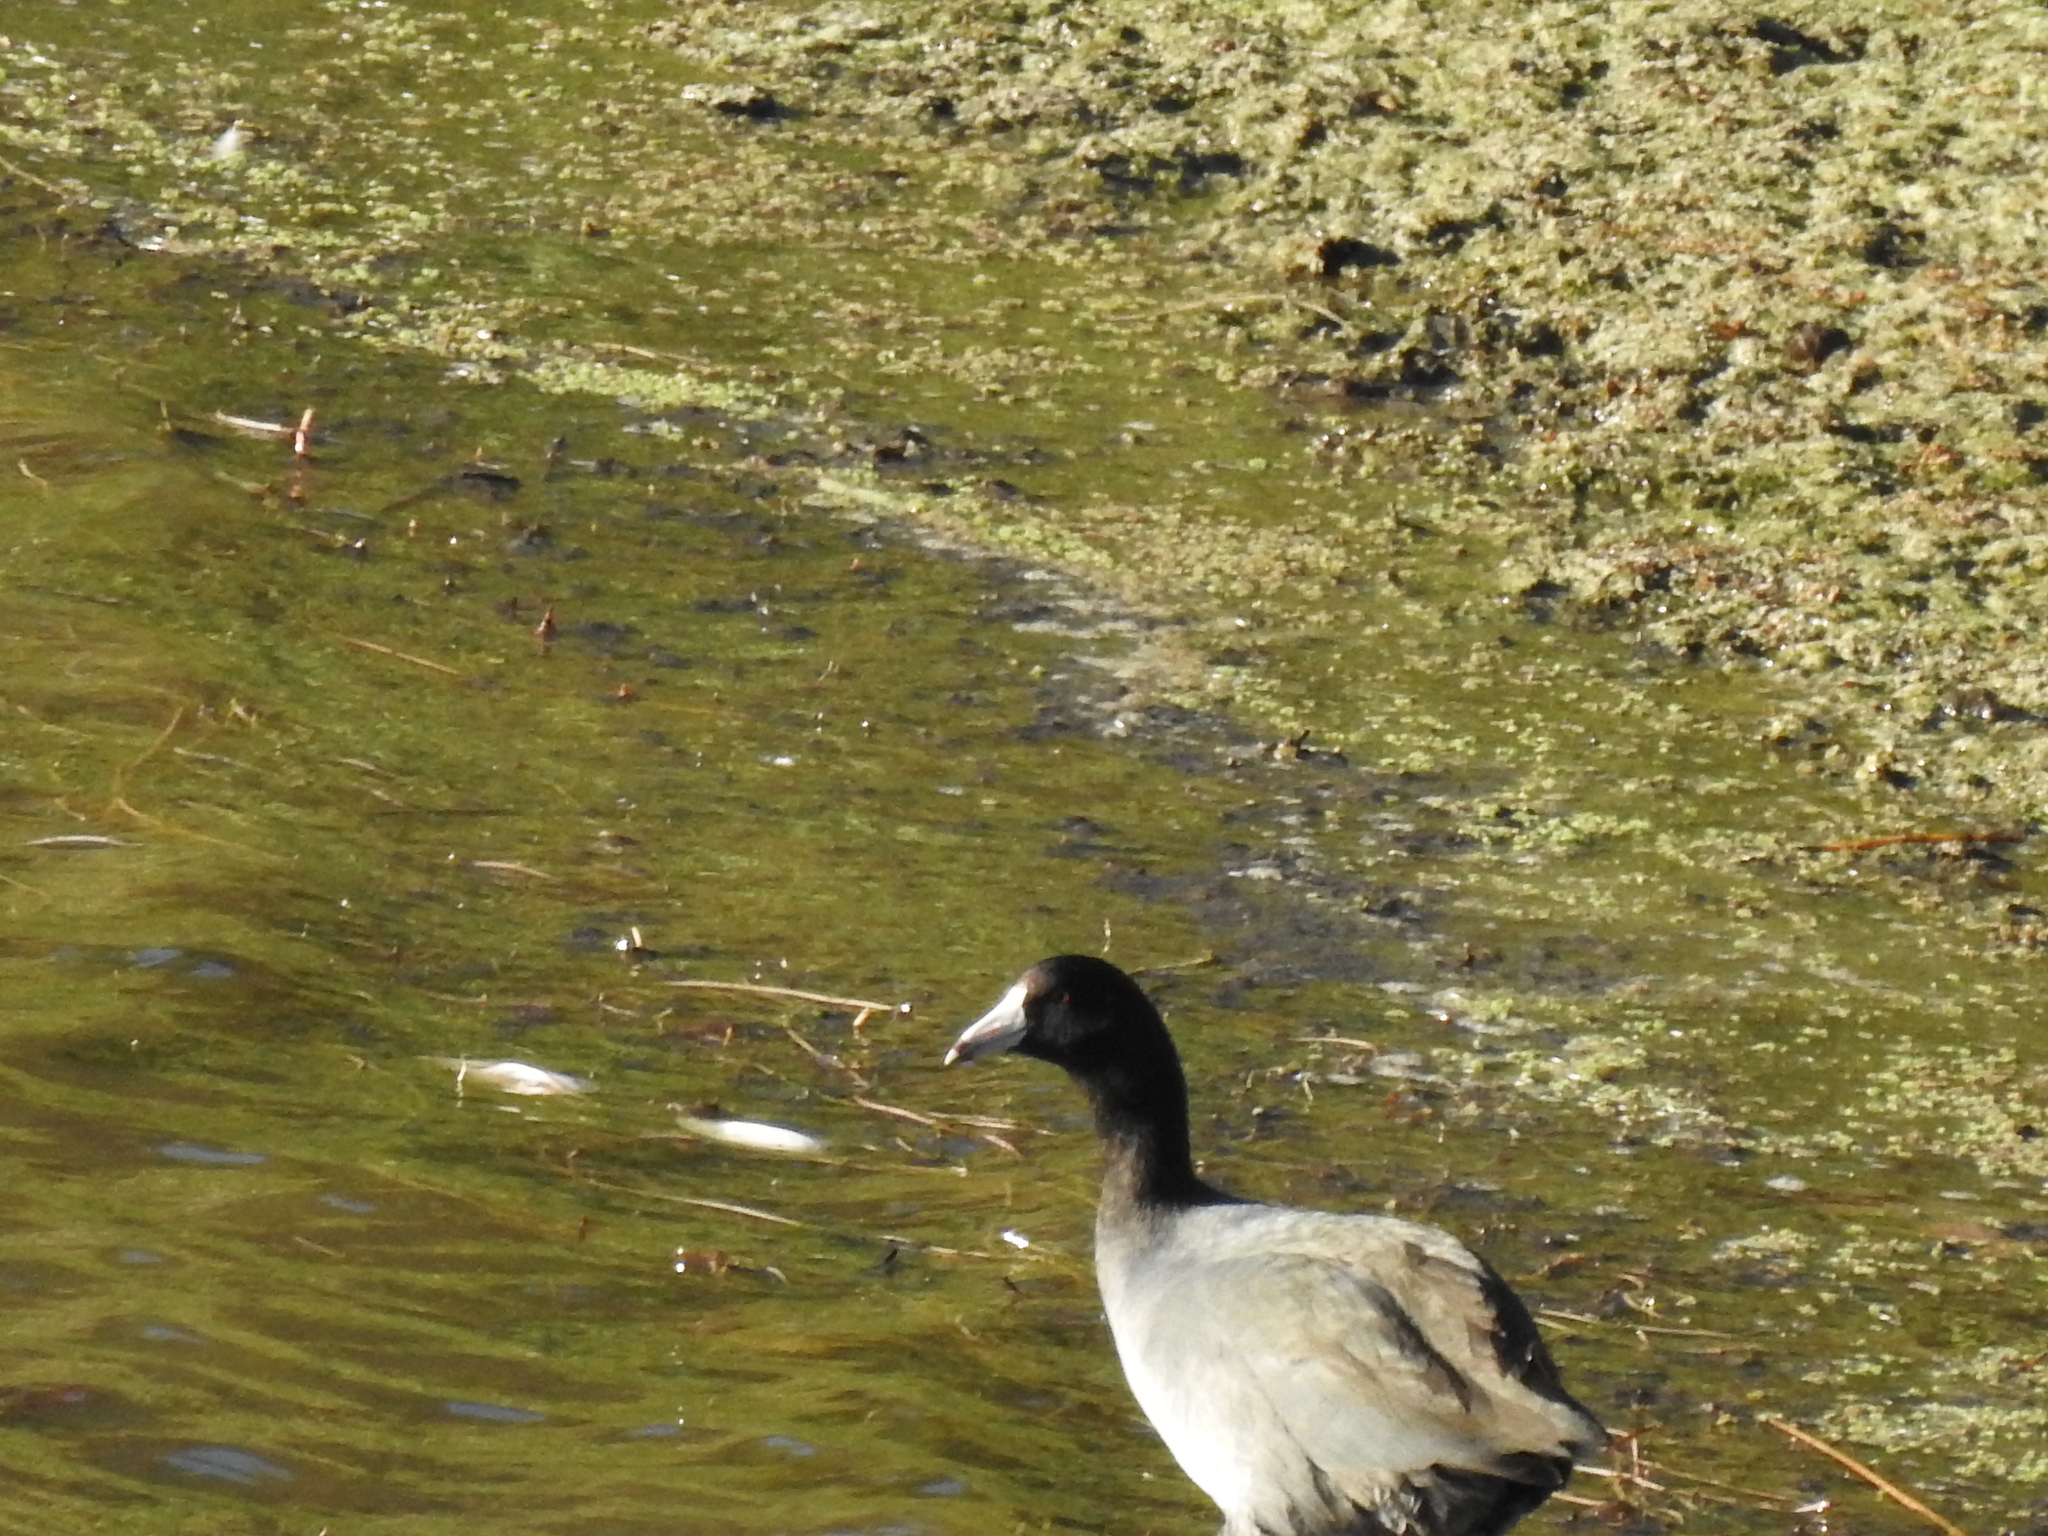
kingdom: Animalia
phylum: Chordata
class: Aves
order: Gruiformes
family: Rallidae
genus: Fulica
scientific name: Fulica americana
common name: American coot
